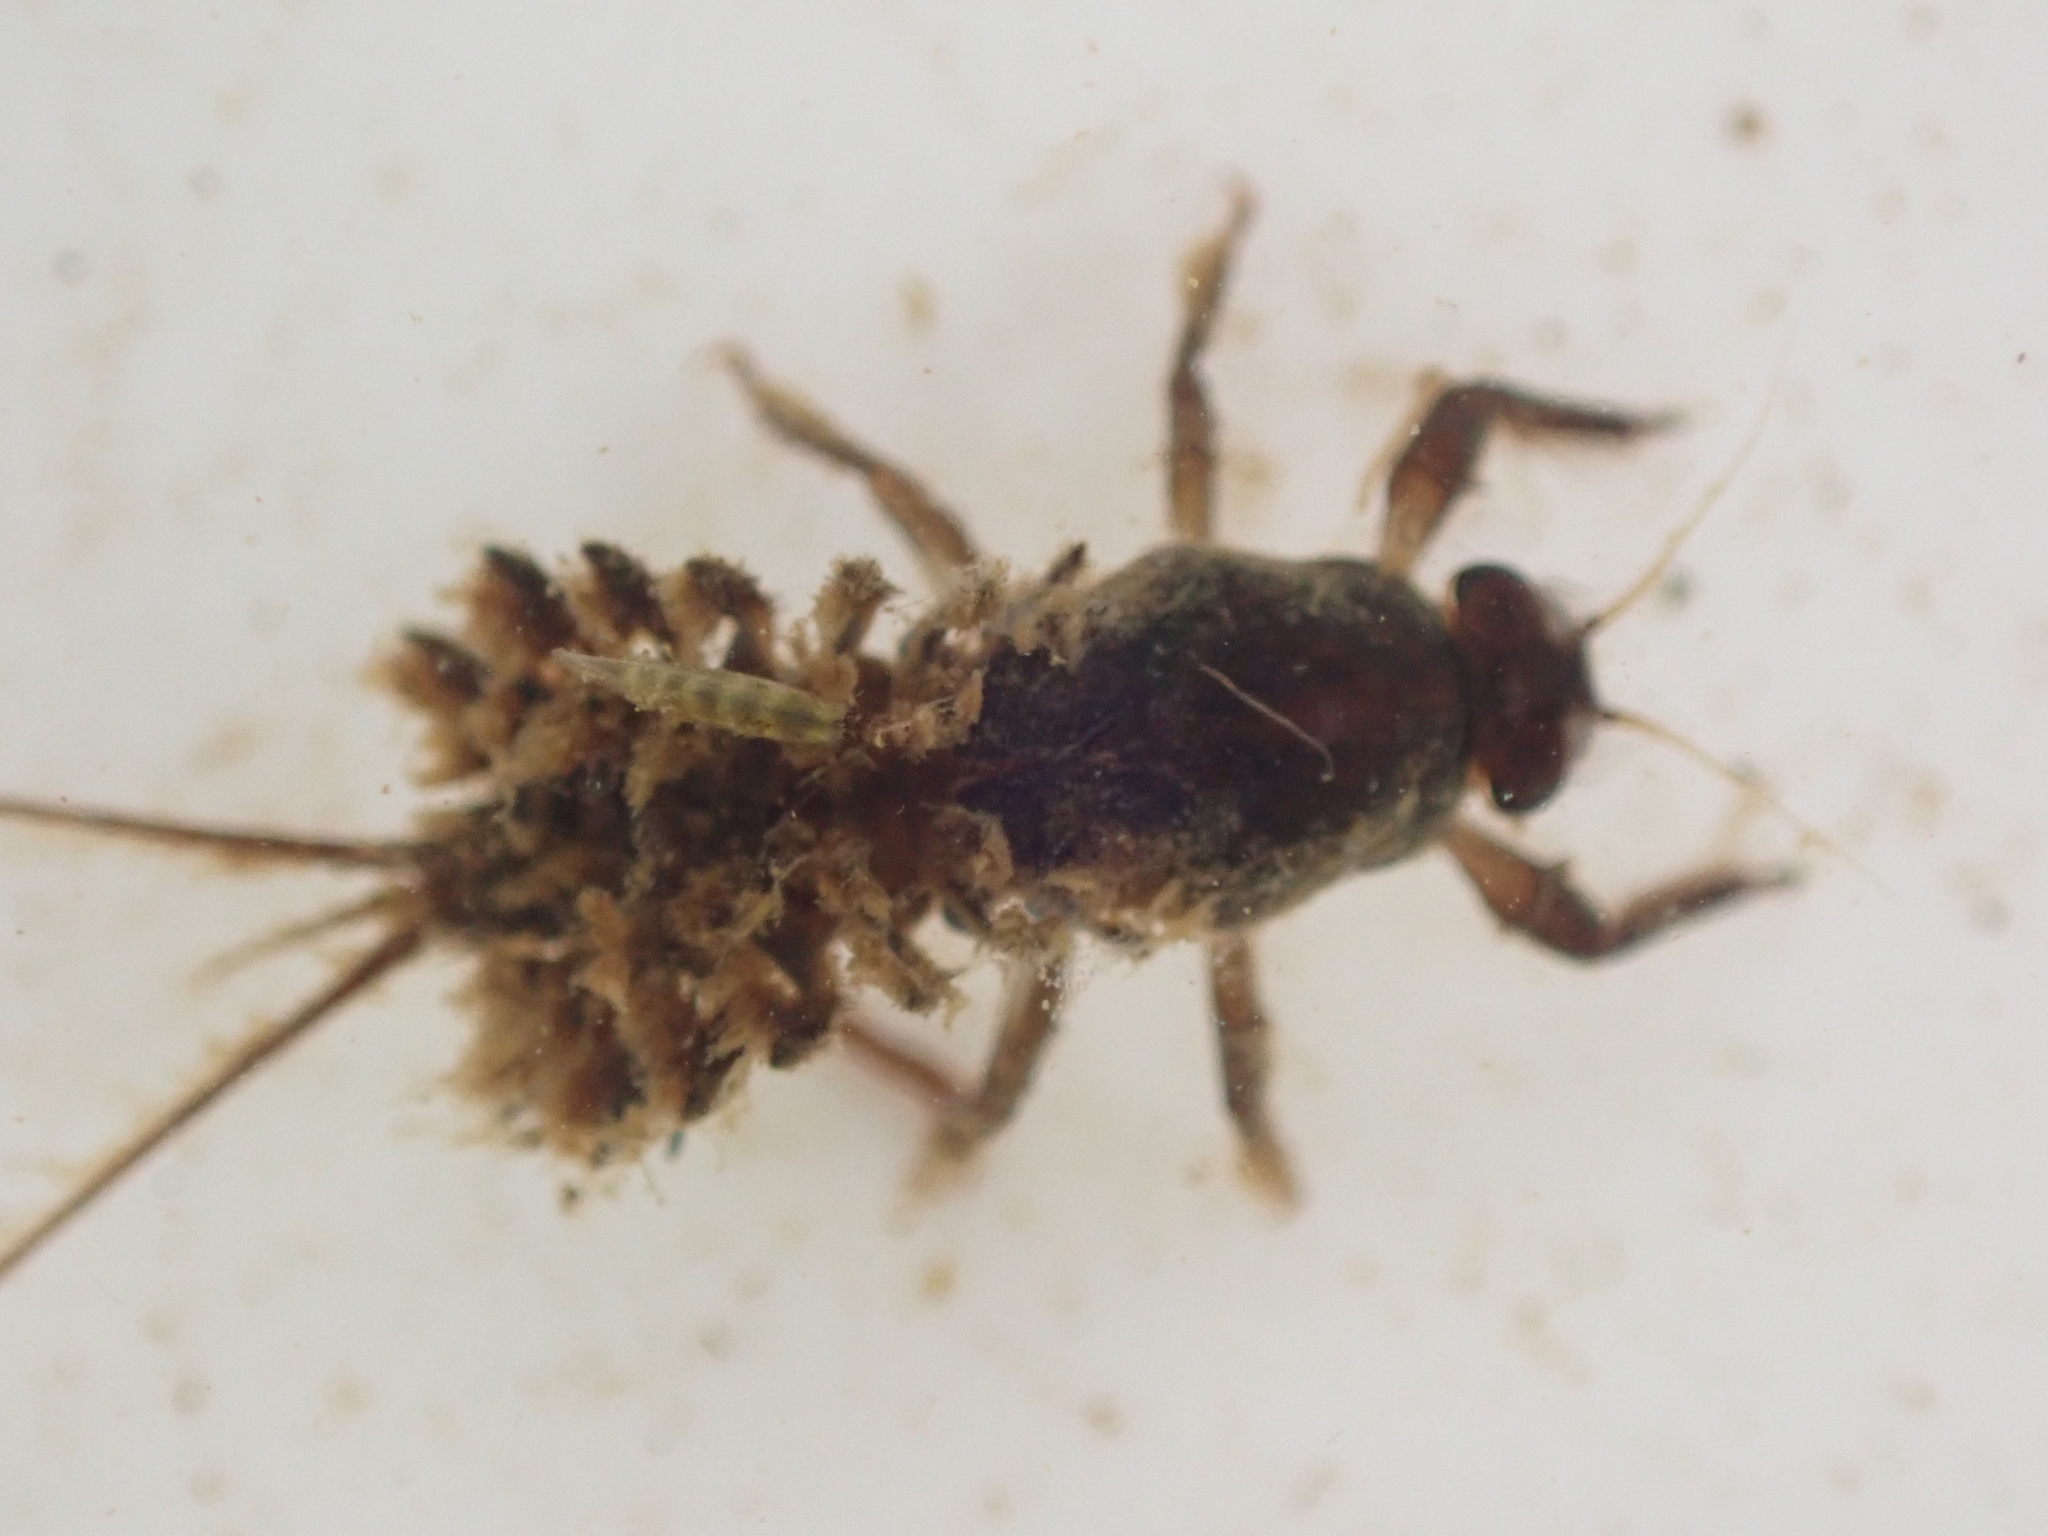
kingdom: Animalia
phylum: Arthropoda
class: Insecta
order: Ephemeroptera
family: Coloburiscidae
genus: Coloburiscus
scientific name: Coloburiscus humeralis
